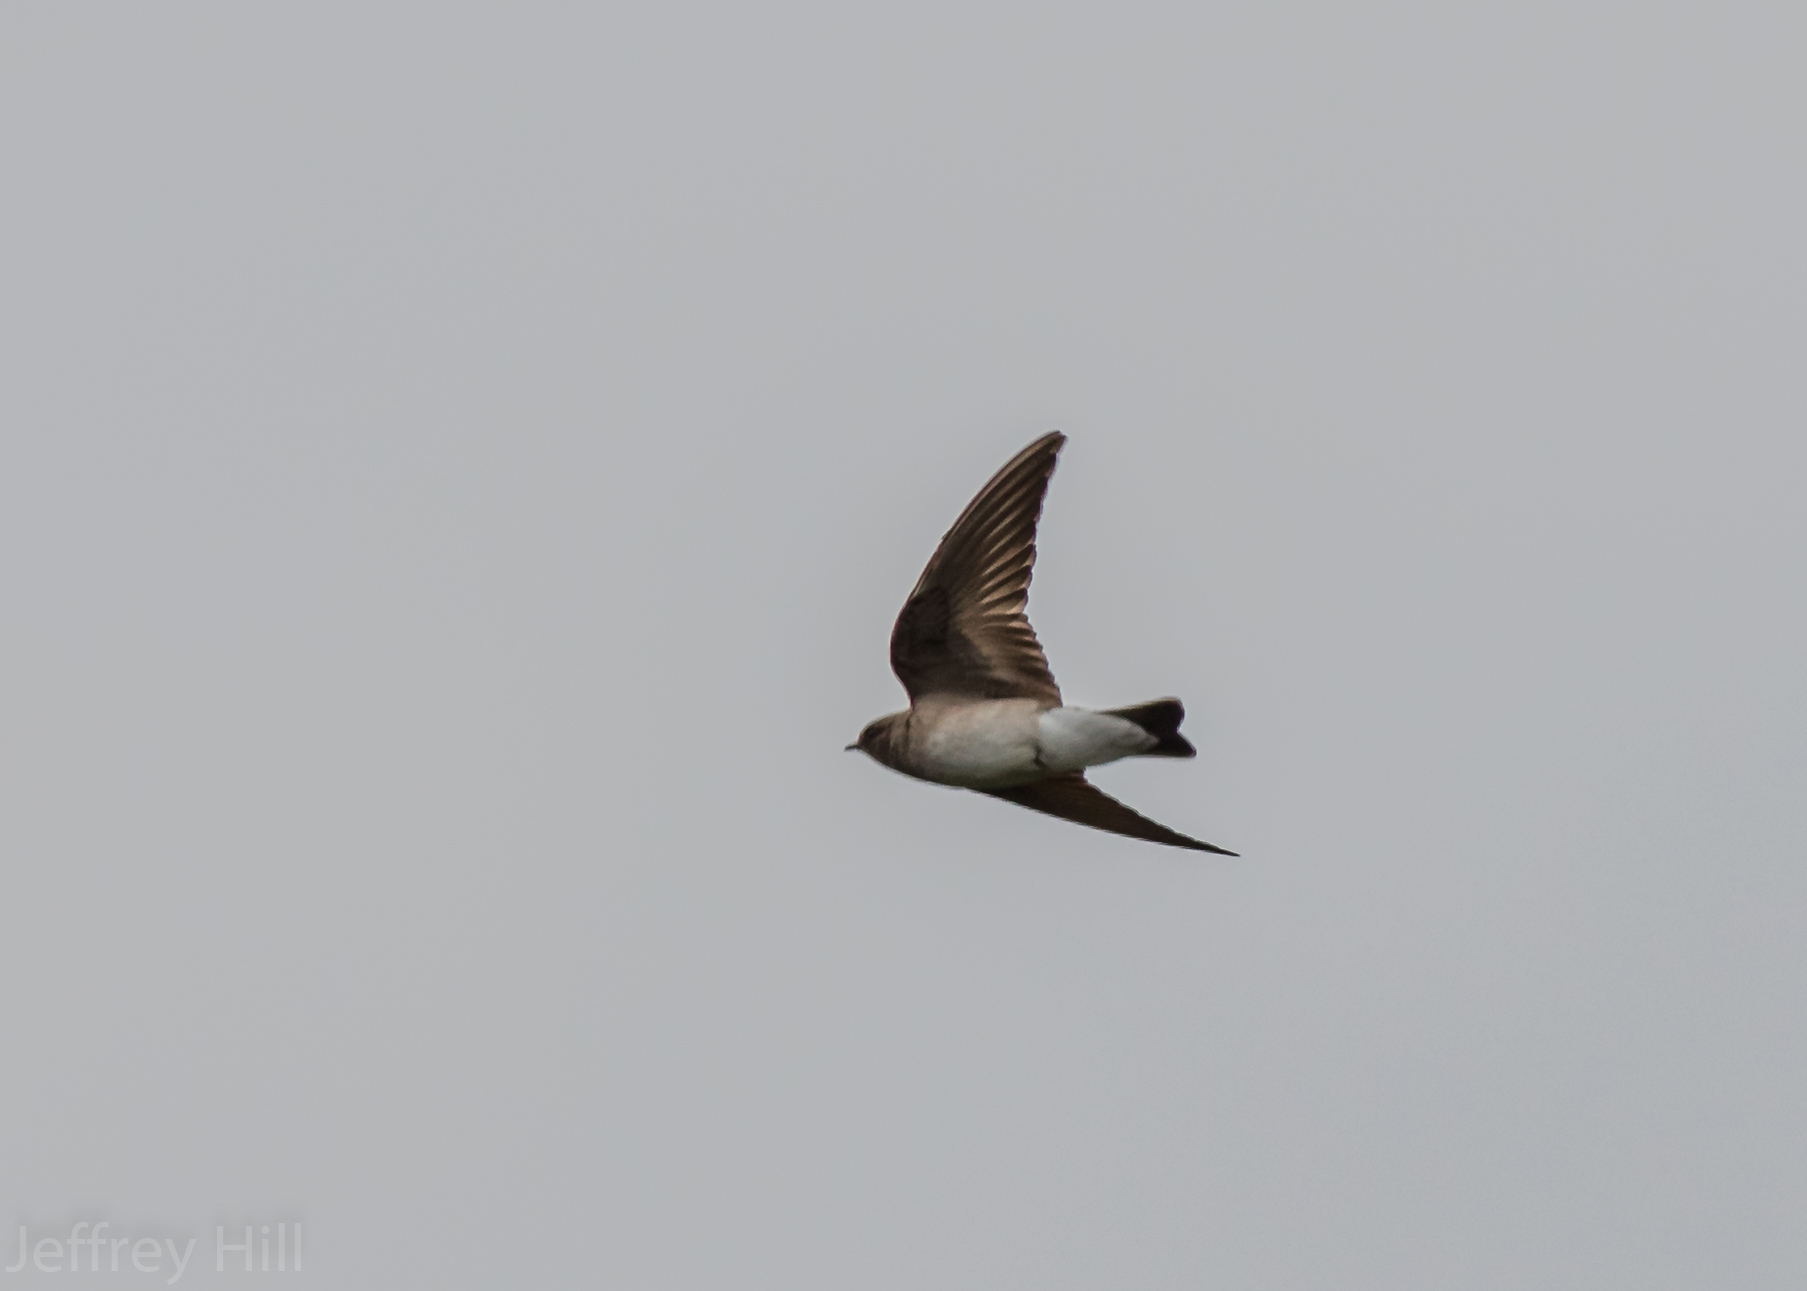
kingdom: Animalia
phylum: Chordata
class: Aves
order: Passeriformes
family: Hirundinidae
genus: Tachycineta
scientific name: Tachycineta bicolor
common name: Tree swallow
